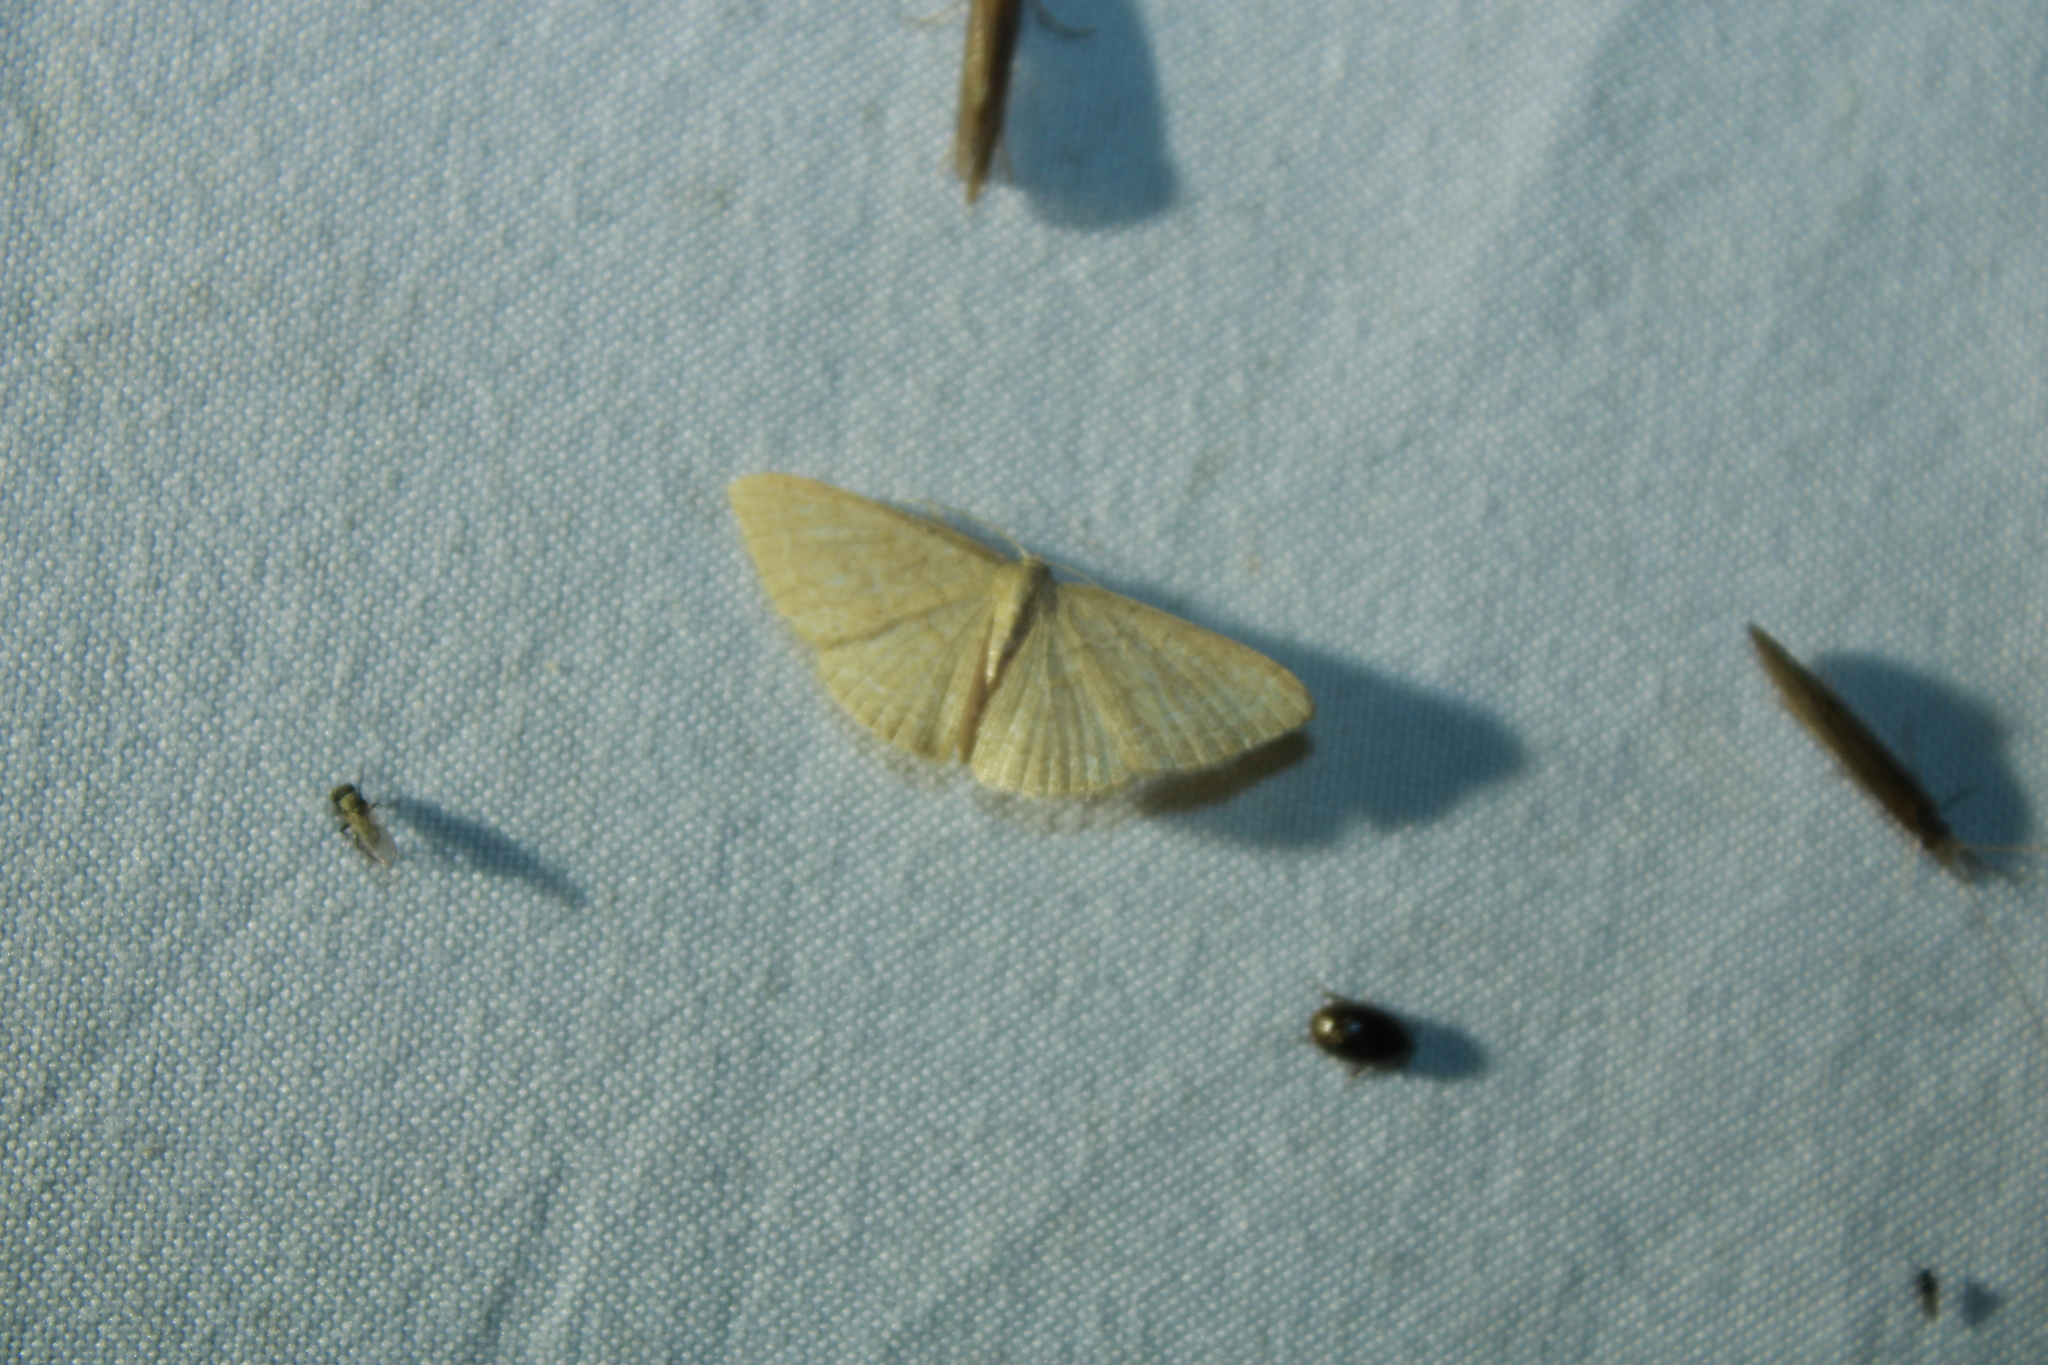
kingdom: Animalia
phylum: Arthropoda
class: Insecta
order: Lepidoptera
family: Geometridae
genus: Pleuroprucha
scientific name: Pleuroprucha insulsaria
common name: Common tan wave
